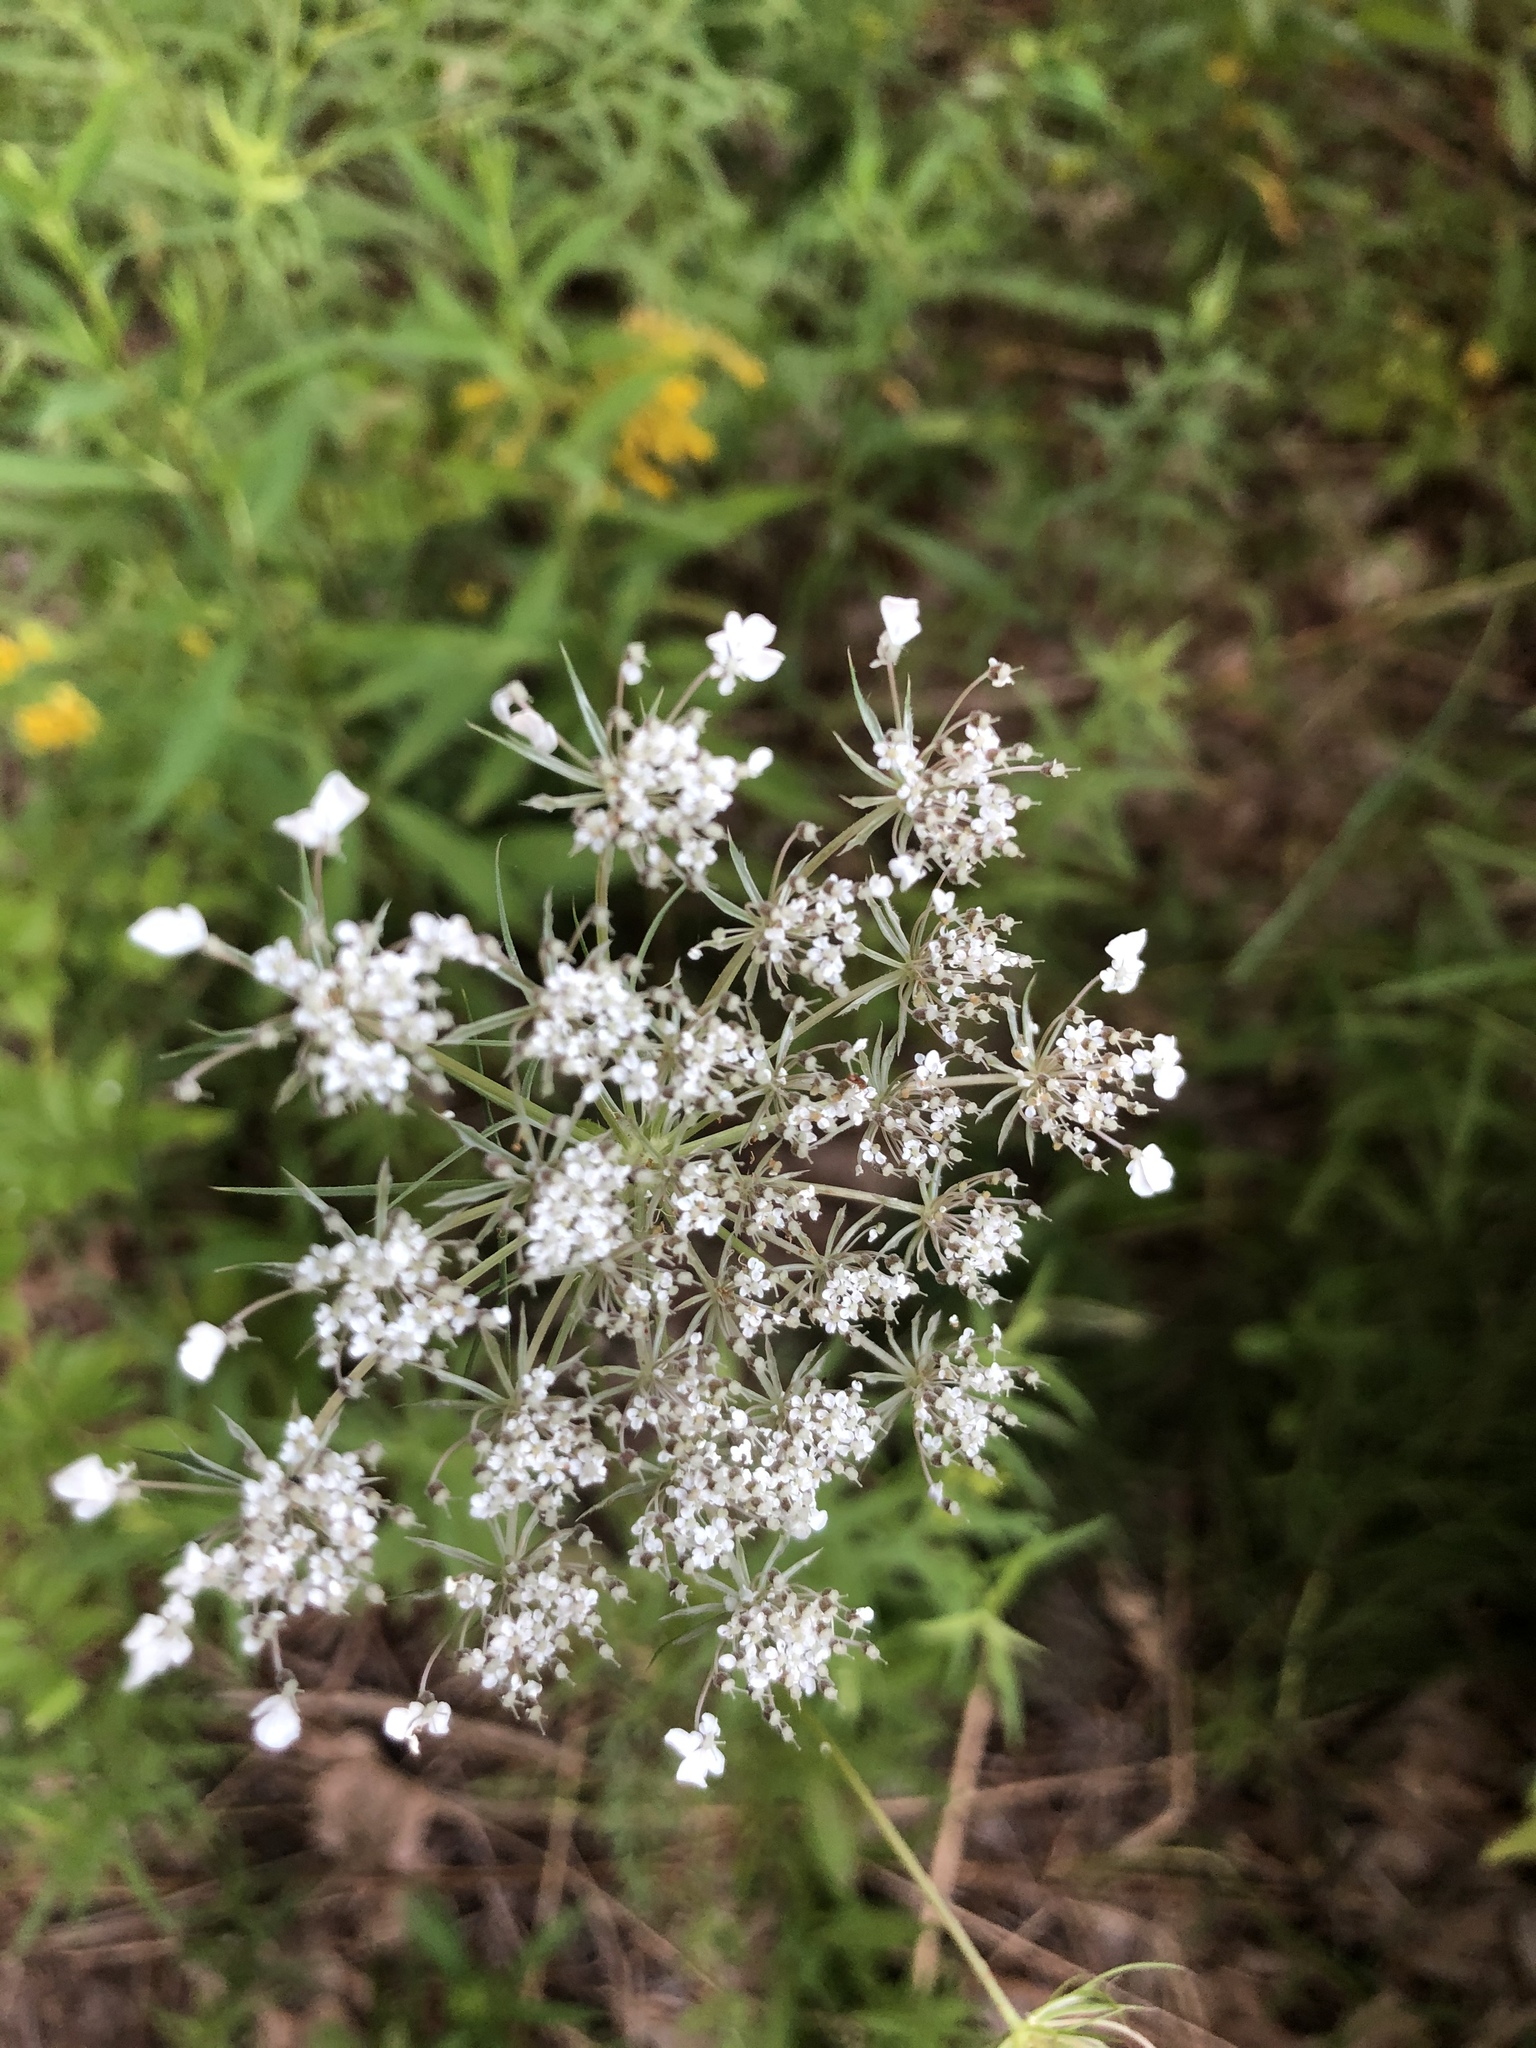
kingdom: Plantae
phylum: Tracheophyta
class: Magnoliopsida
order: Apiales
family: Apiaceae
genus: Daucus
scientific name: Daucus carota
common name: Wild carrot
